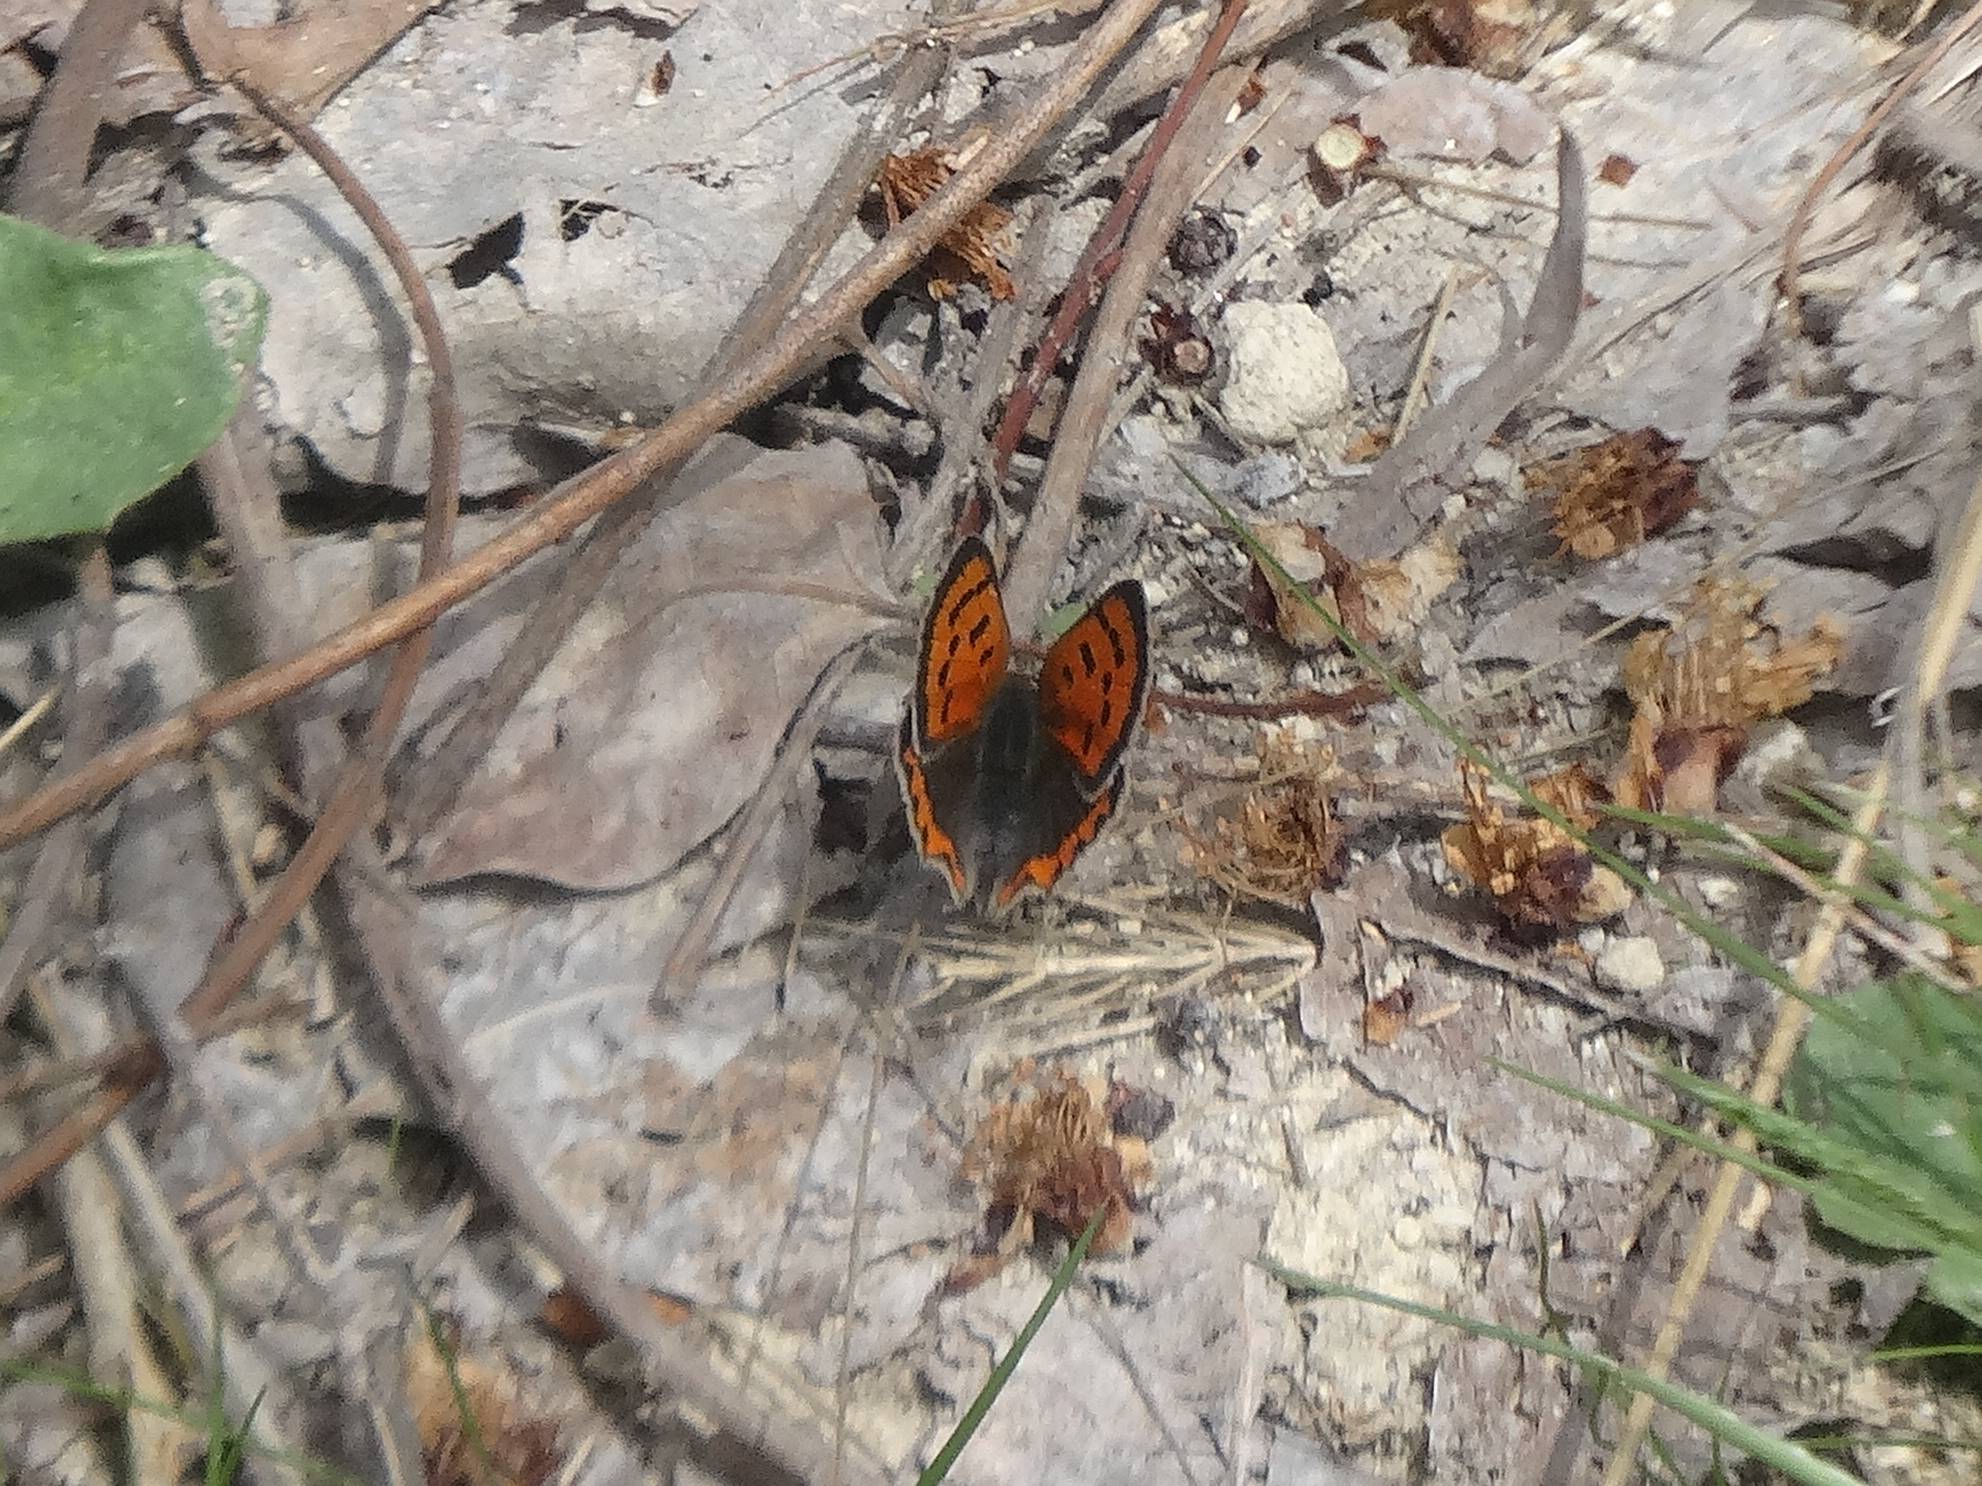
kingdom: Animalia
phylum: Arthropoda
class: Insecta
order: Lepidoptera
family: Lycaenidae
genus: Lycaena
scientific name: Lycaena phlaeas
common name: Small copper
